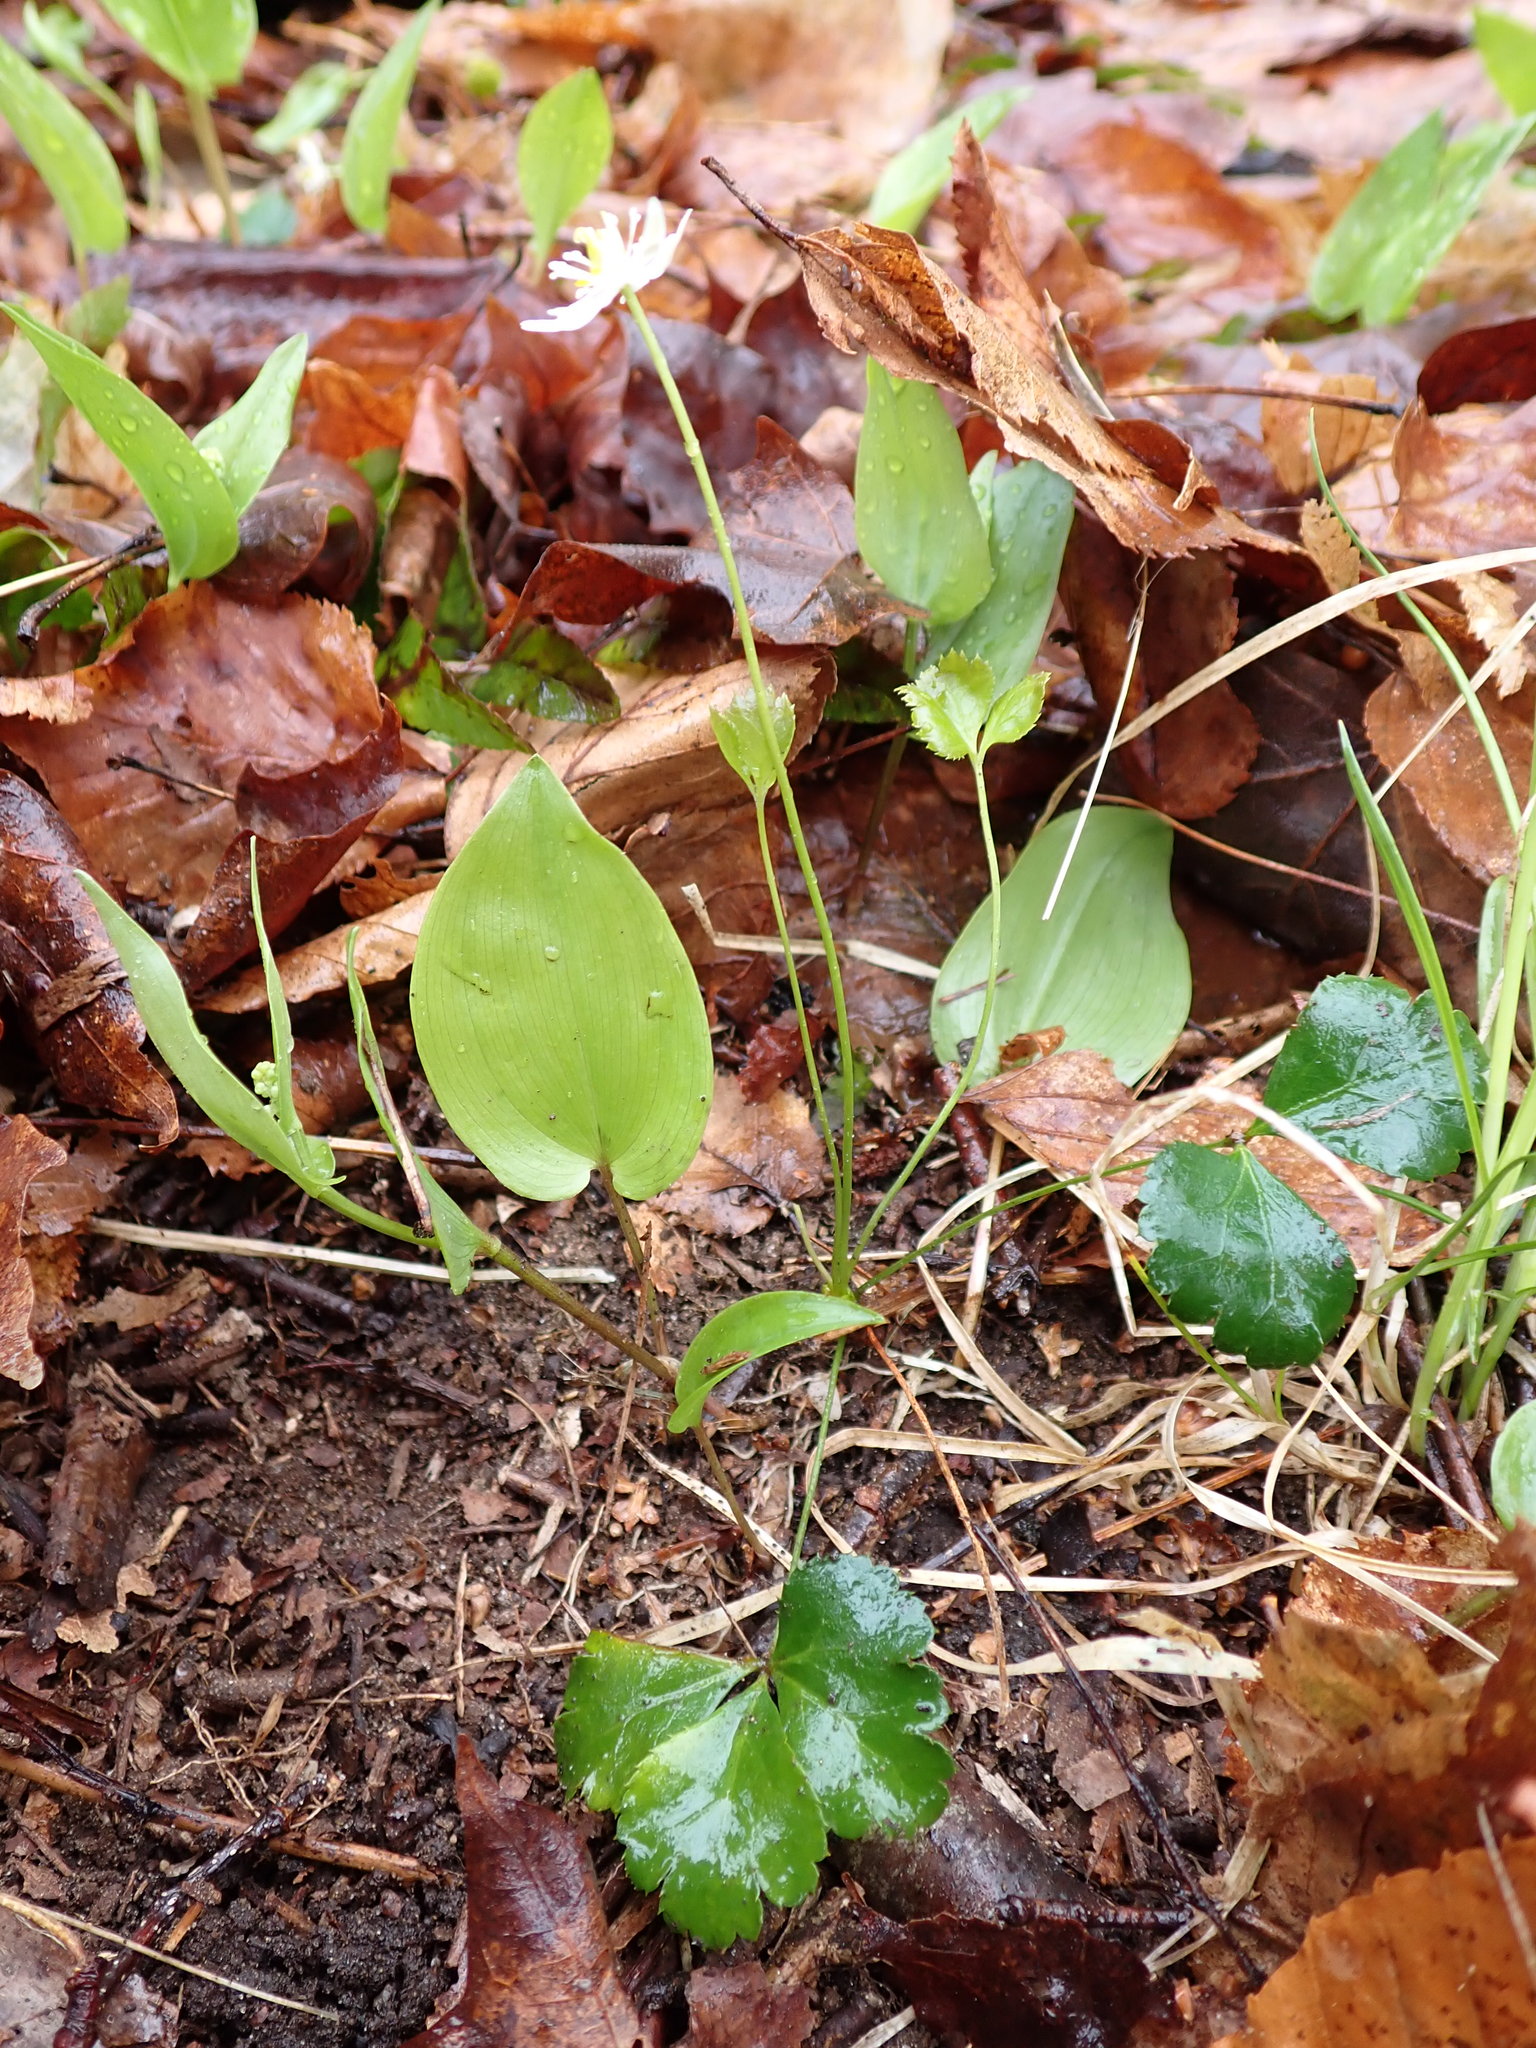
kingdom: Plantae
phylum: Tracheophyta
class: Magnoliopsida
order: Ranunculales
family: Ranunculaceae
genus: Coptis
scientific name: Coptis trifolia
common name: Canker-root
